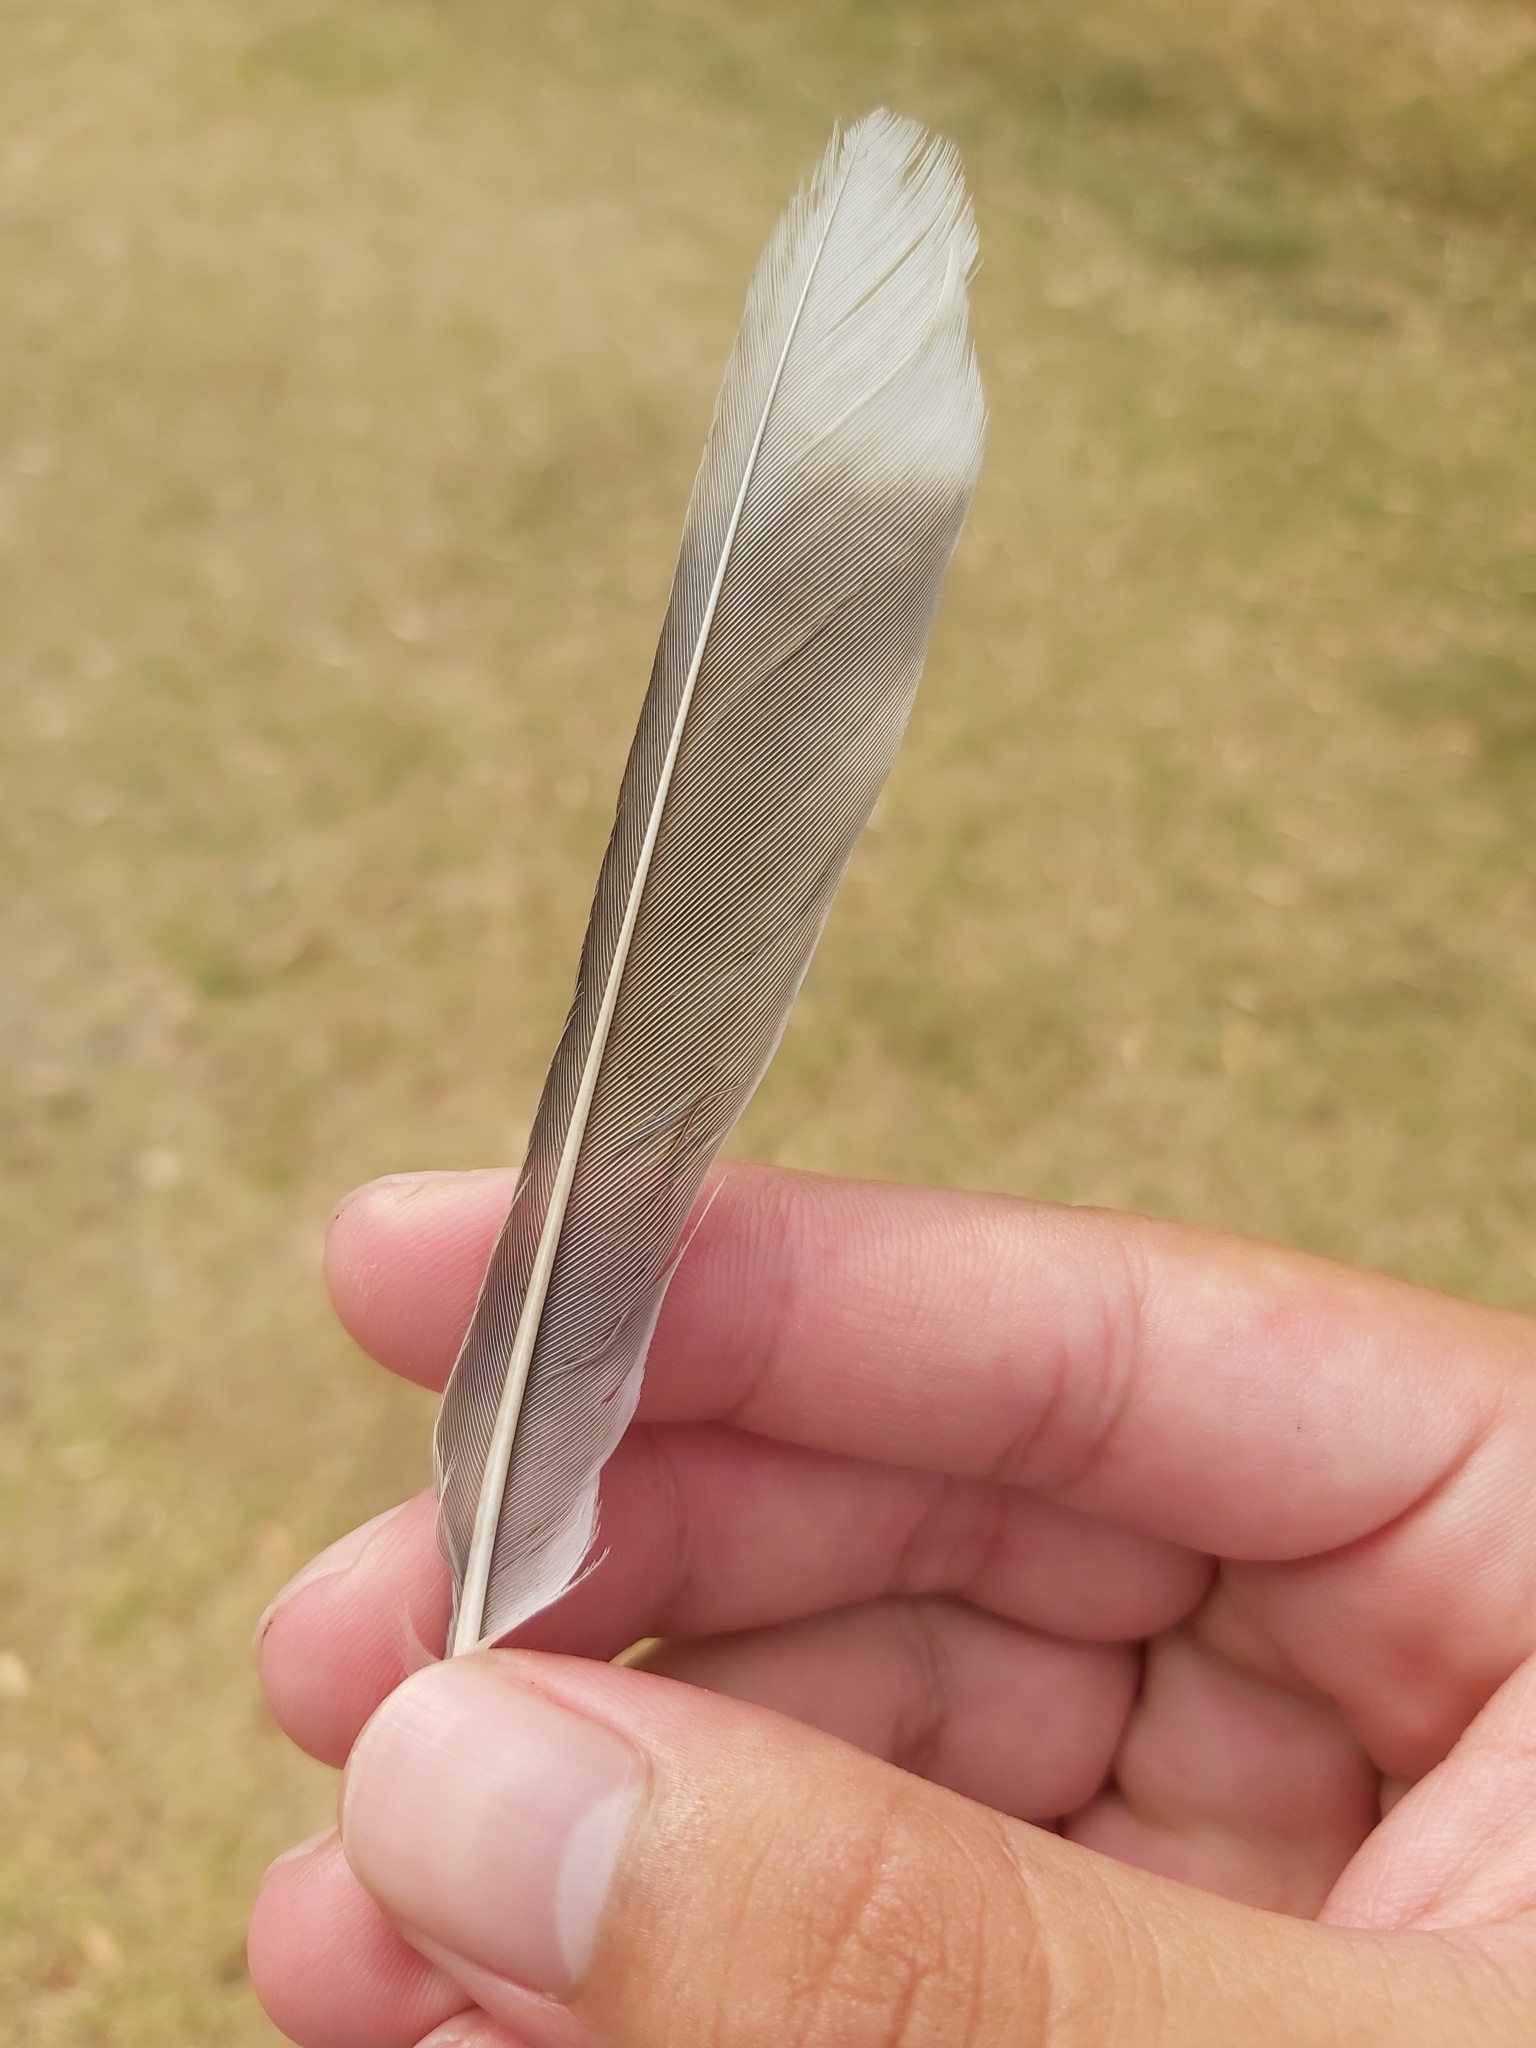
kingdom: Animalia
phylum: Chordata
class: Aves
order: Passeriformes
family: Meliphagidae
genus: Manorina
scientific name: Manorina melanocephala
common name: Noisy miner
